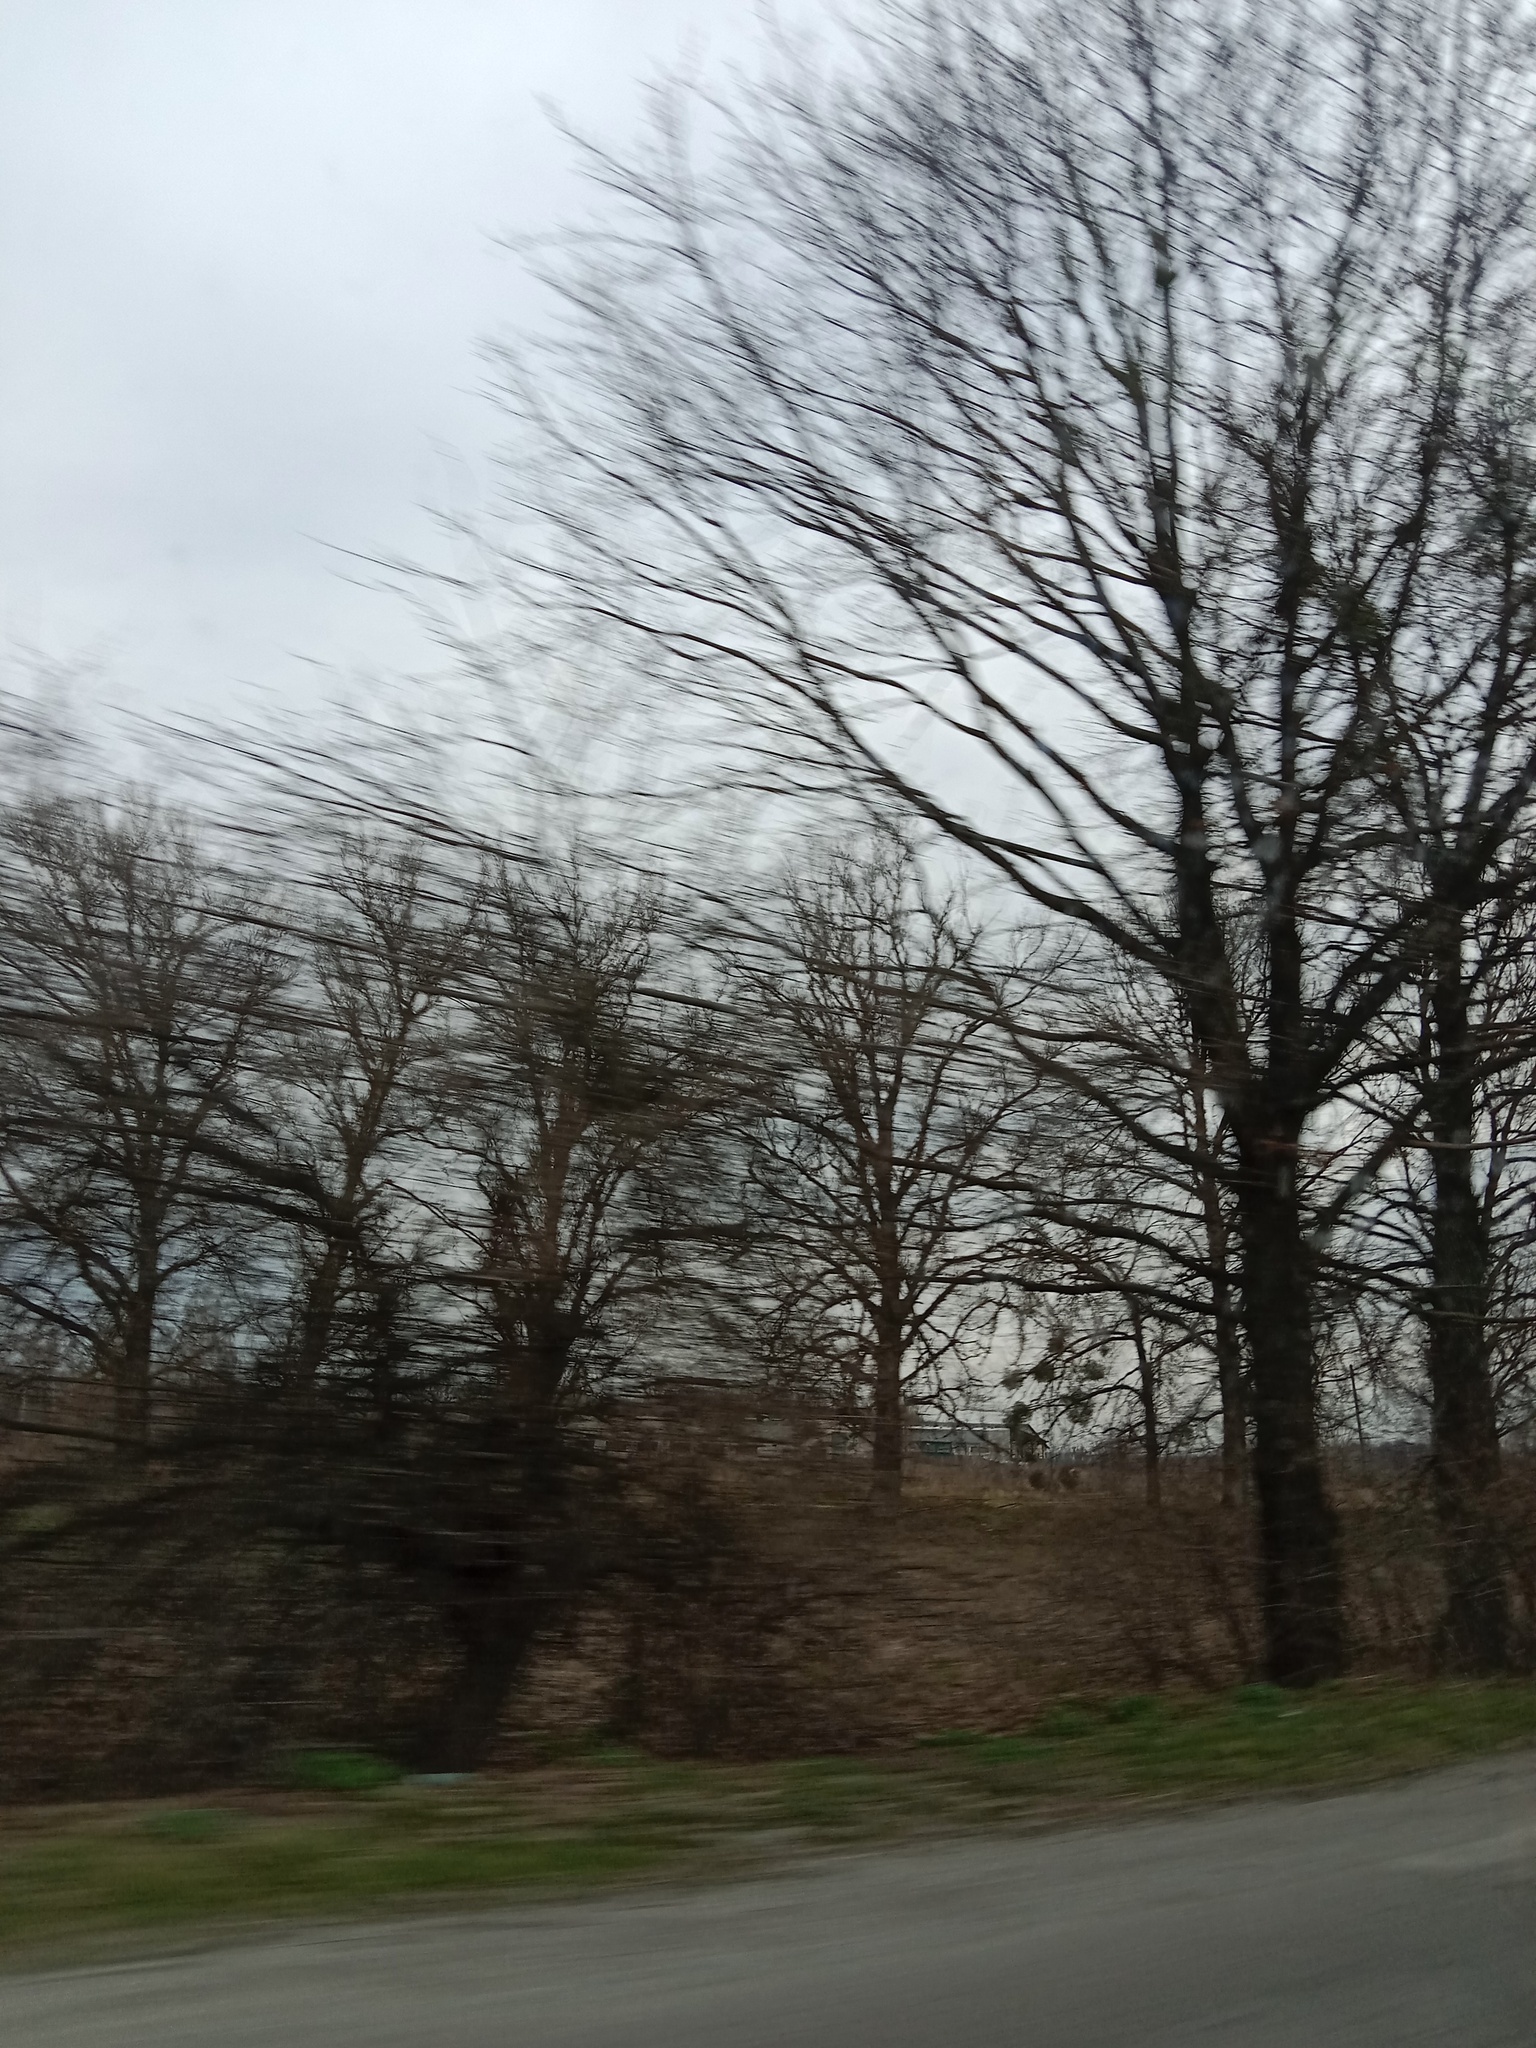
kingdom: Plantae
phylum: Tracheophyta
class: Magnoliopsida
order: Santalales
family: Viscaceae
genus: Viscum
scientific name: Viscum album
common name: Mistletoe
